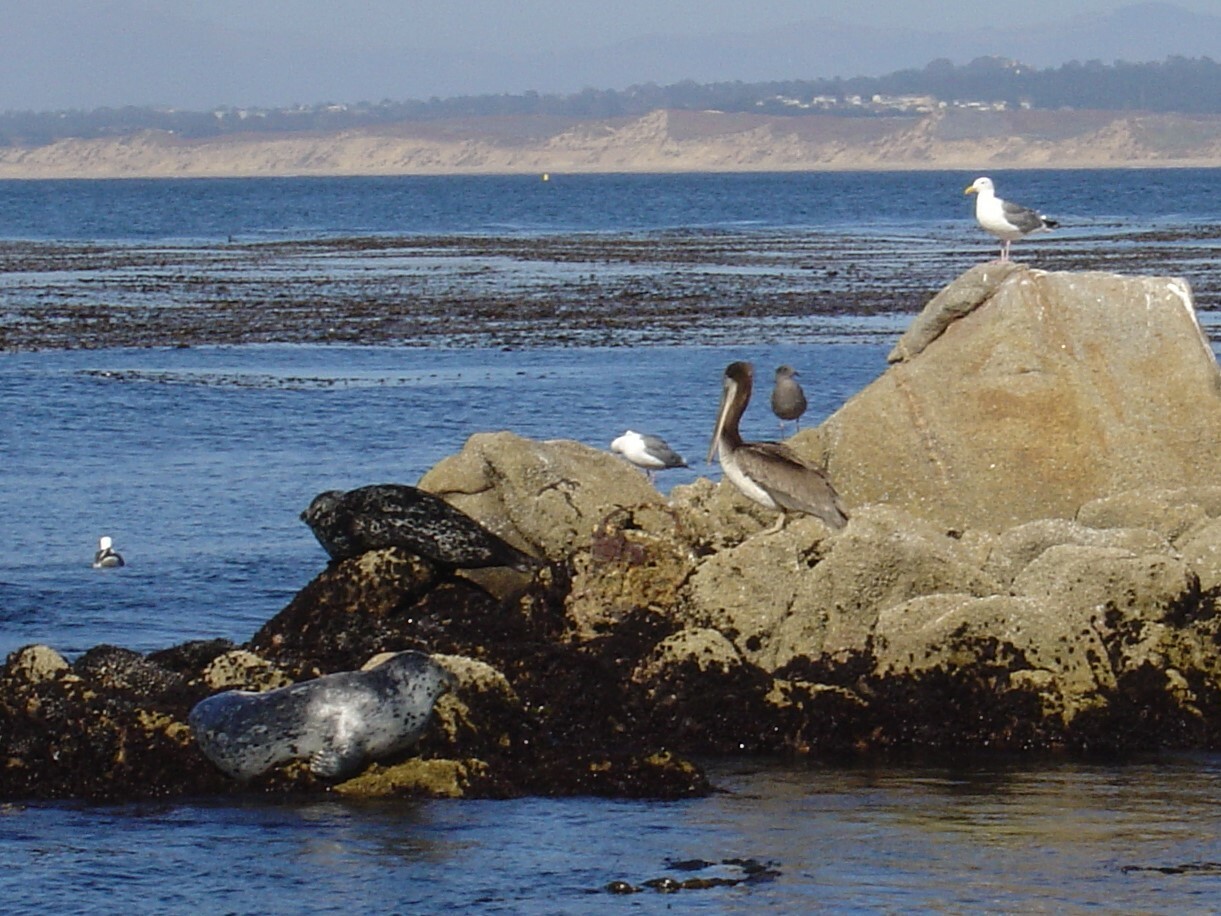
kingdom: Animalia
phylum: Chordata
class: Mammalia
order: Carnivora
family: Phocidae
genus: Phoca
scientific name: Phoca vitulina
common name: Harbor seal
